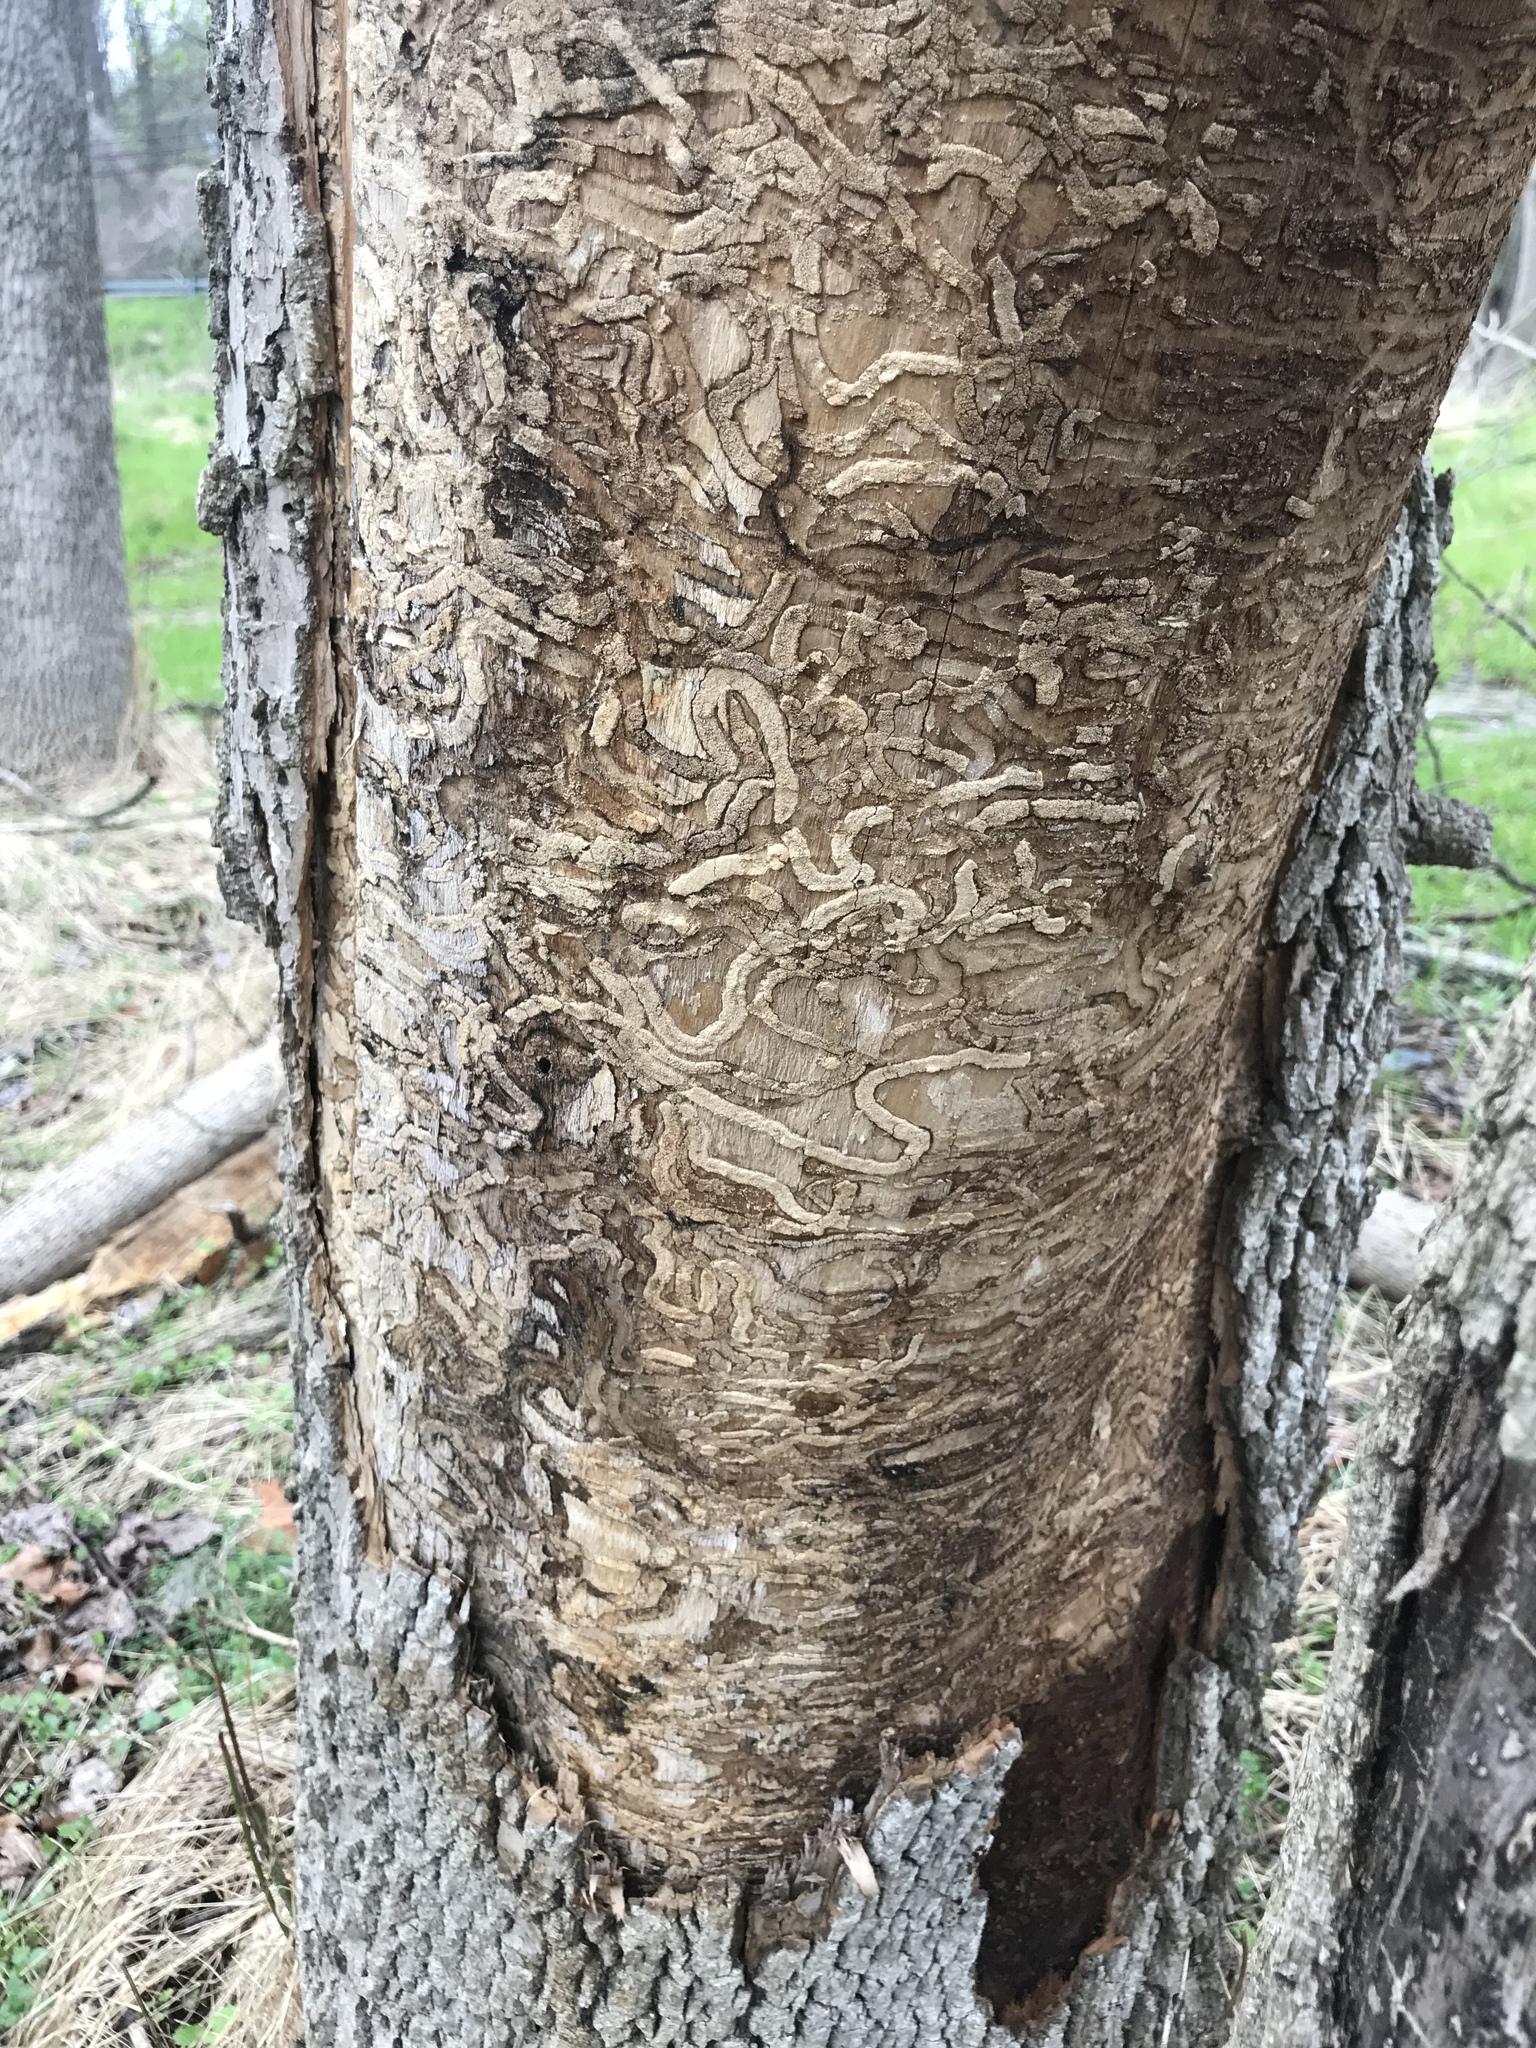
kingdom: Animalia
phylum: Arthropoda
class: Insecta
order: Coleoptera
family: Buprestidae
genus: Agrilus
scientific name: Agrilus planipennis
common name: Emerald ash borer
